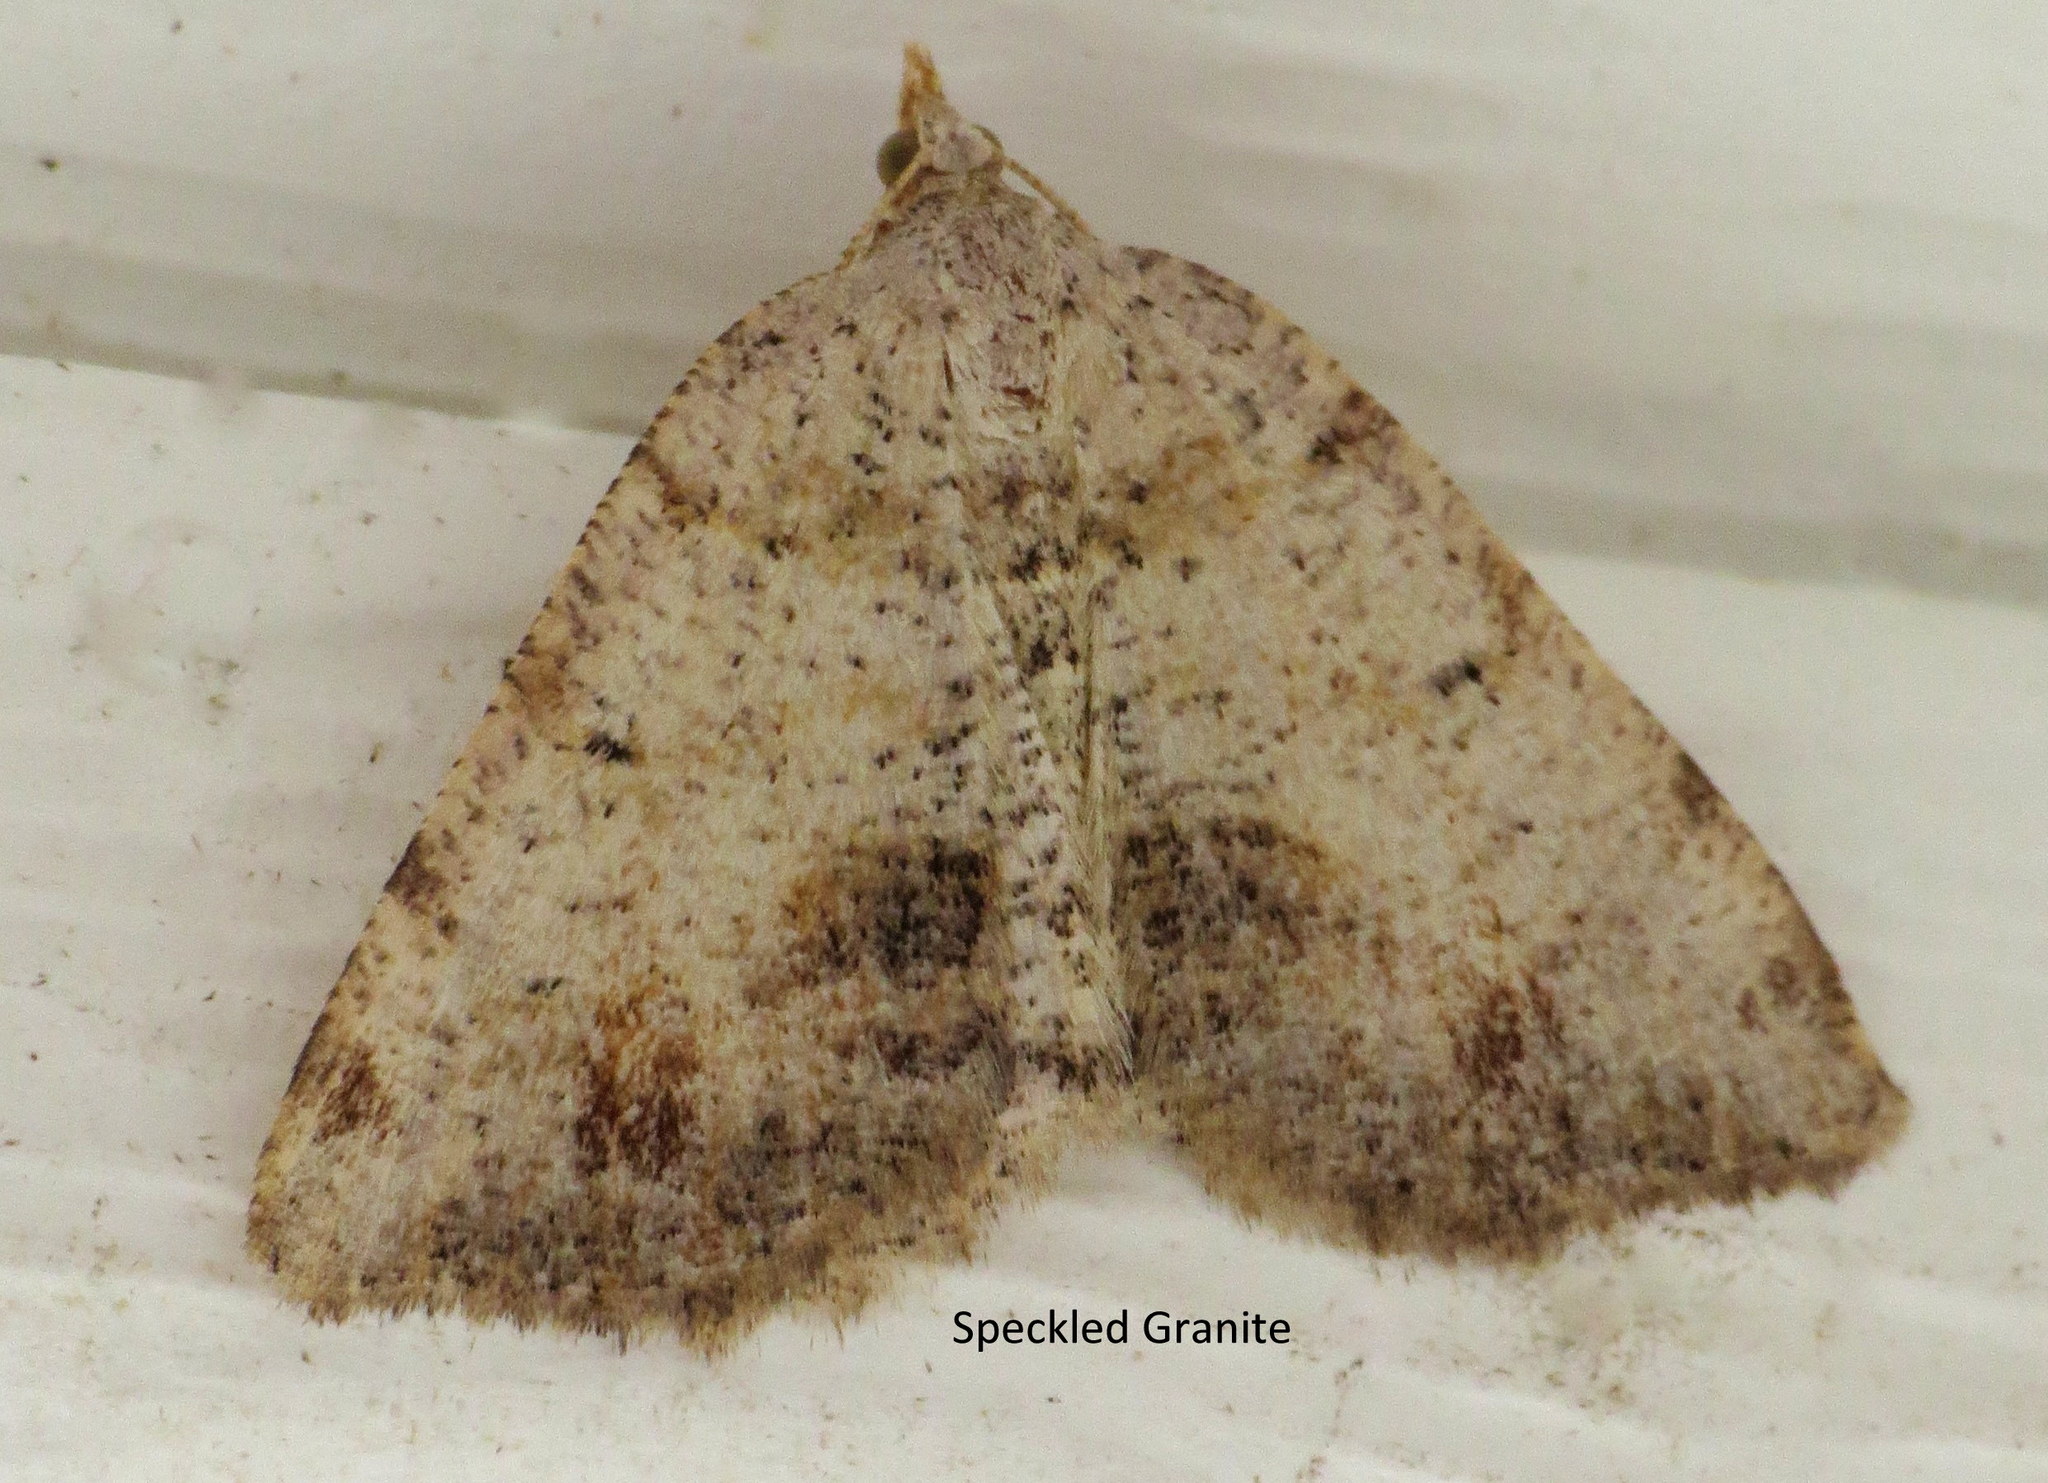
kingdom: Animalia
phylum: Arthropoda
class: Insecta
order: Lepidoptera
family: Geometridae
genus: Macaria
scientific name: Macaria exauspicata
